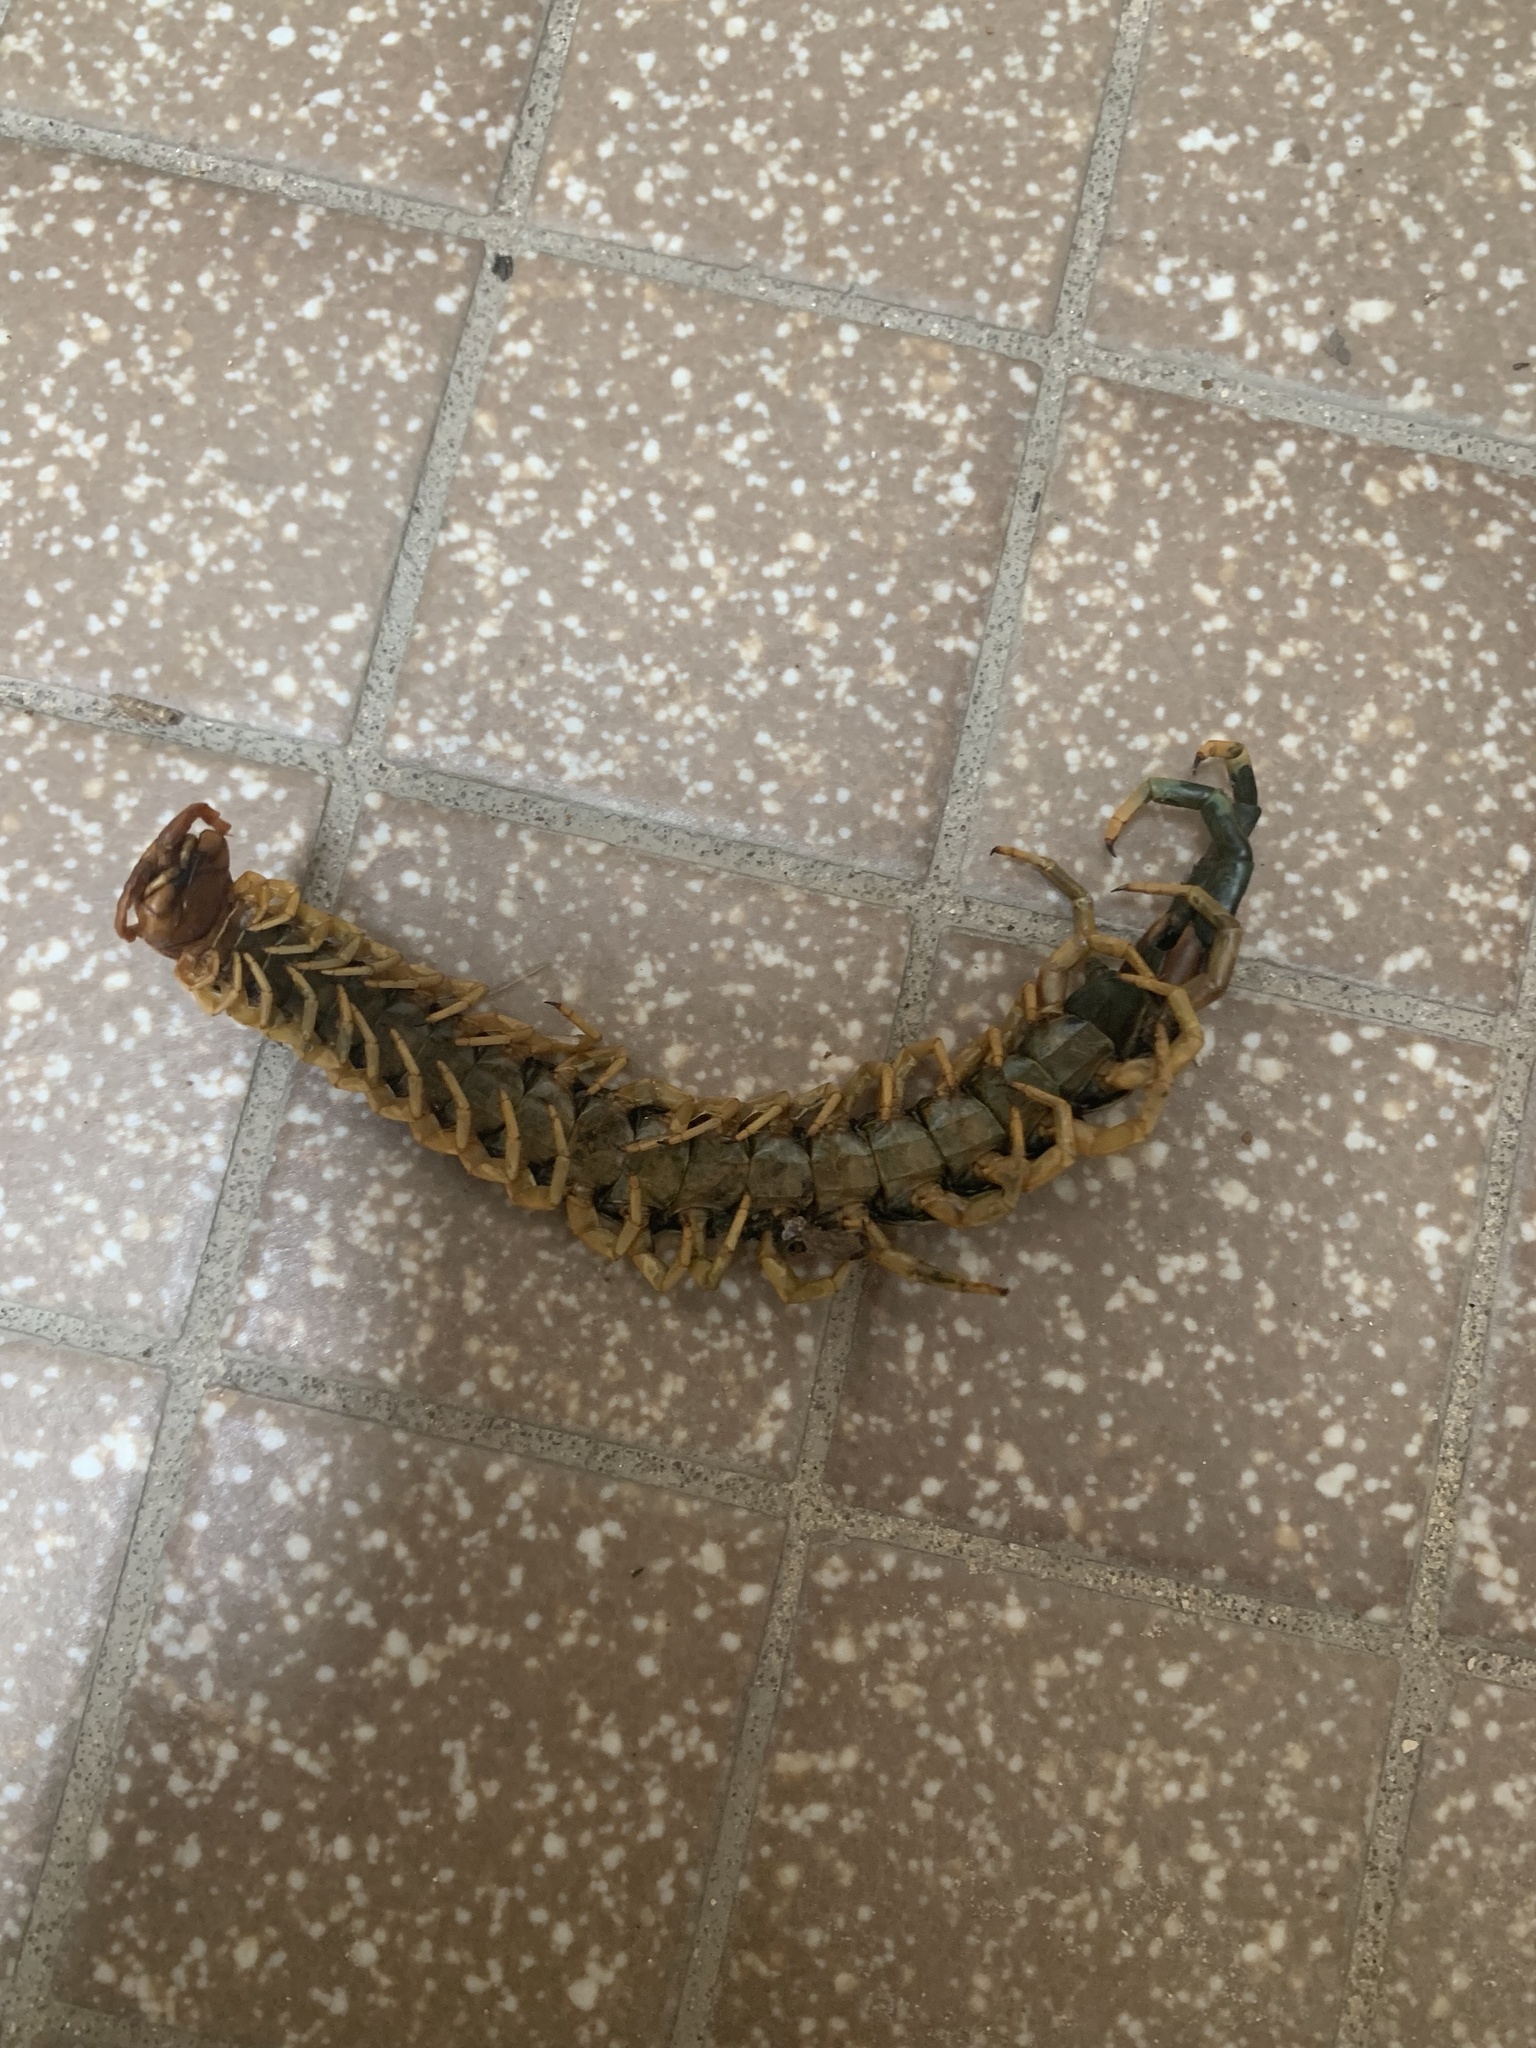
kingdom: Animalia
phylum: Arthropoda
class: Chilopoda
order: Scolopendromorpha
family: Scolopendridae
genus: Scolopendra
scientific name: Scolopendra heros
